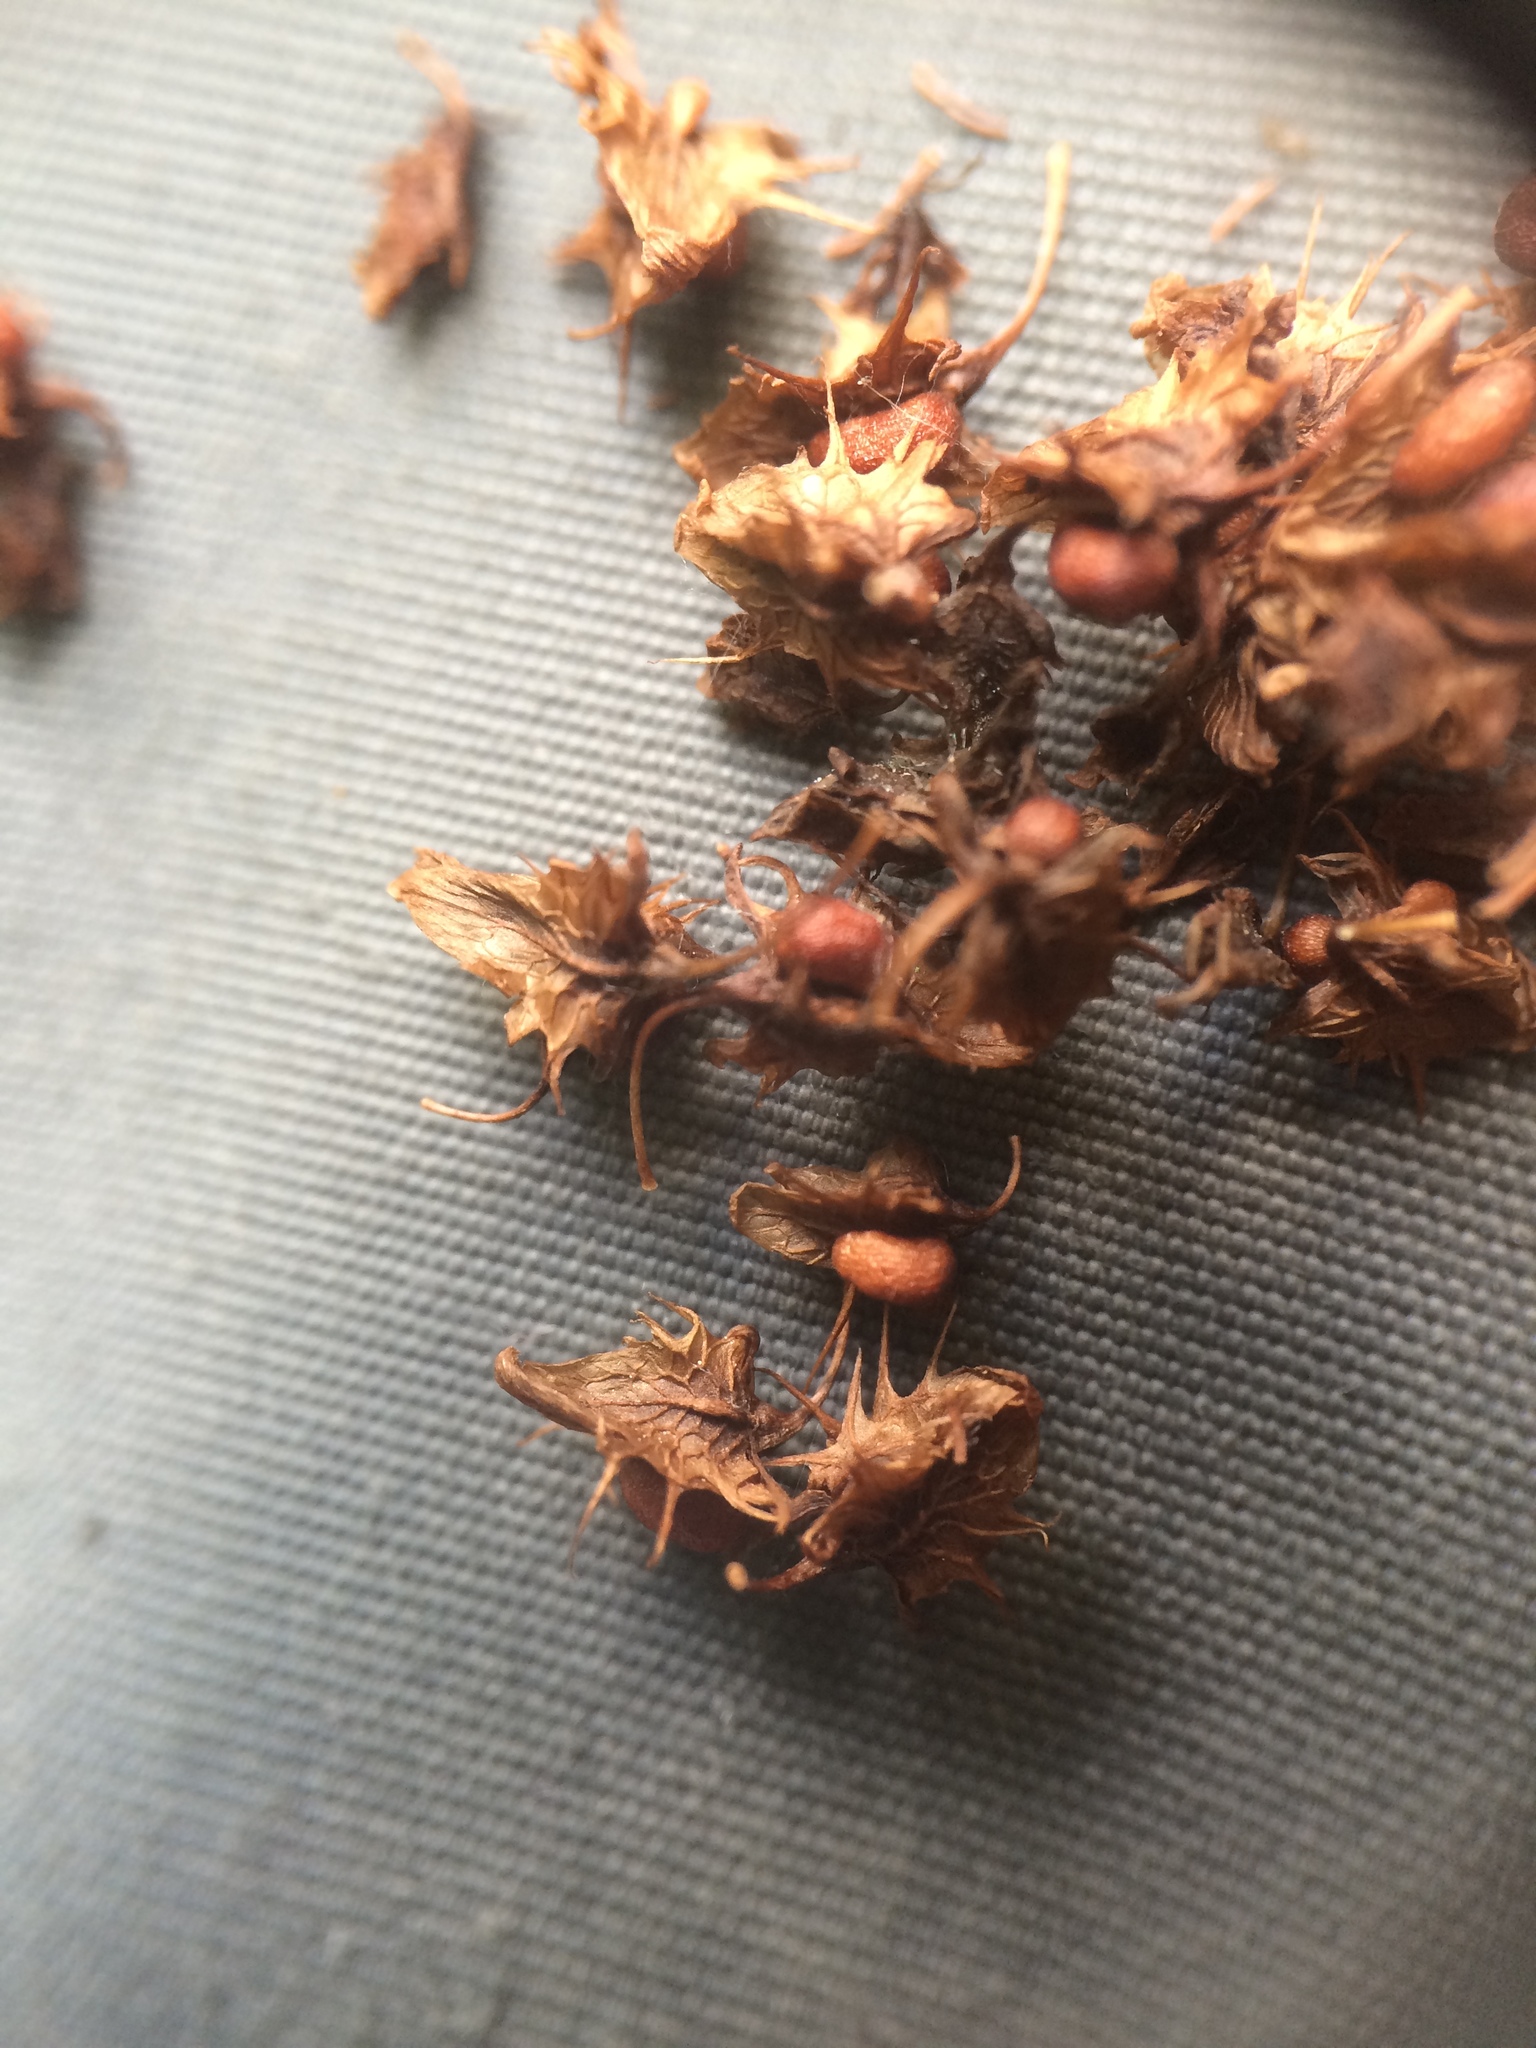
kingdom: Plantae
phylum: Tracheophyta
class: Magnoliopsida
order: Caryophyllales
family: Polygonaceae
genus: Rumex
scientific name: Rumex obtusifolius
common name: Bitter dock
